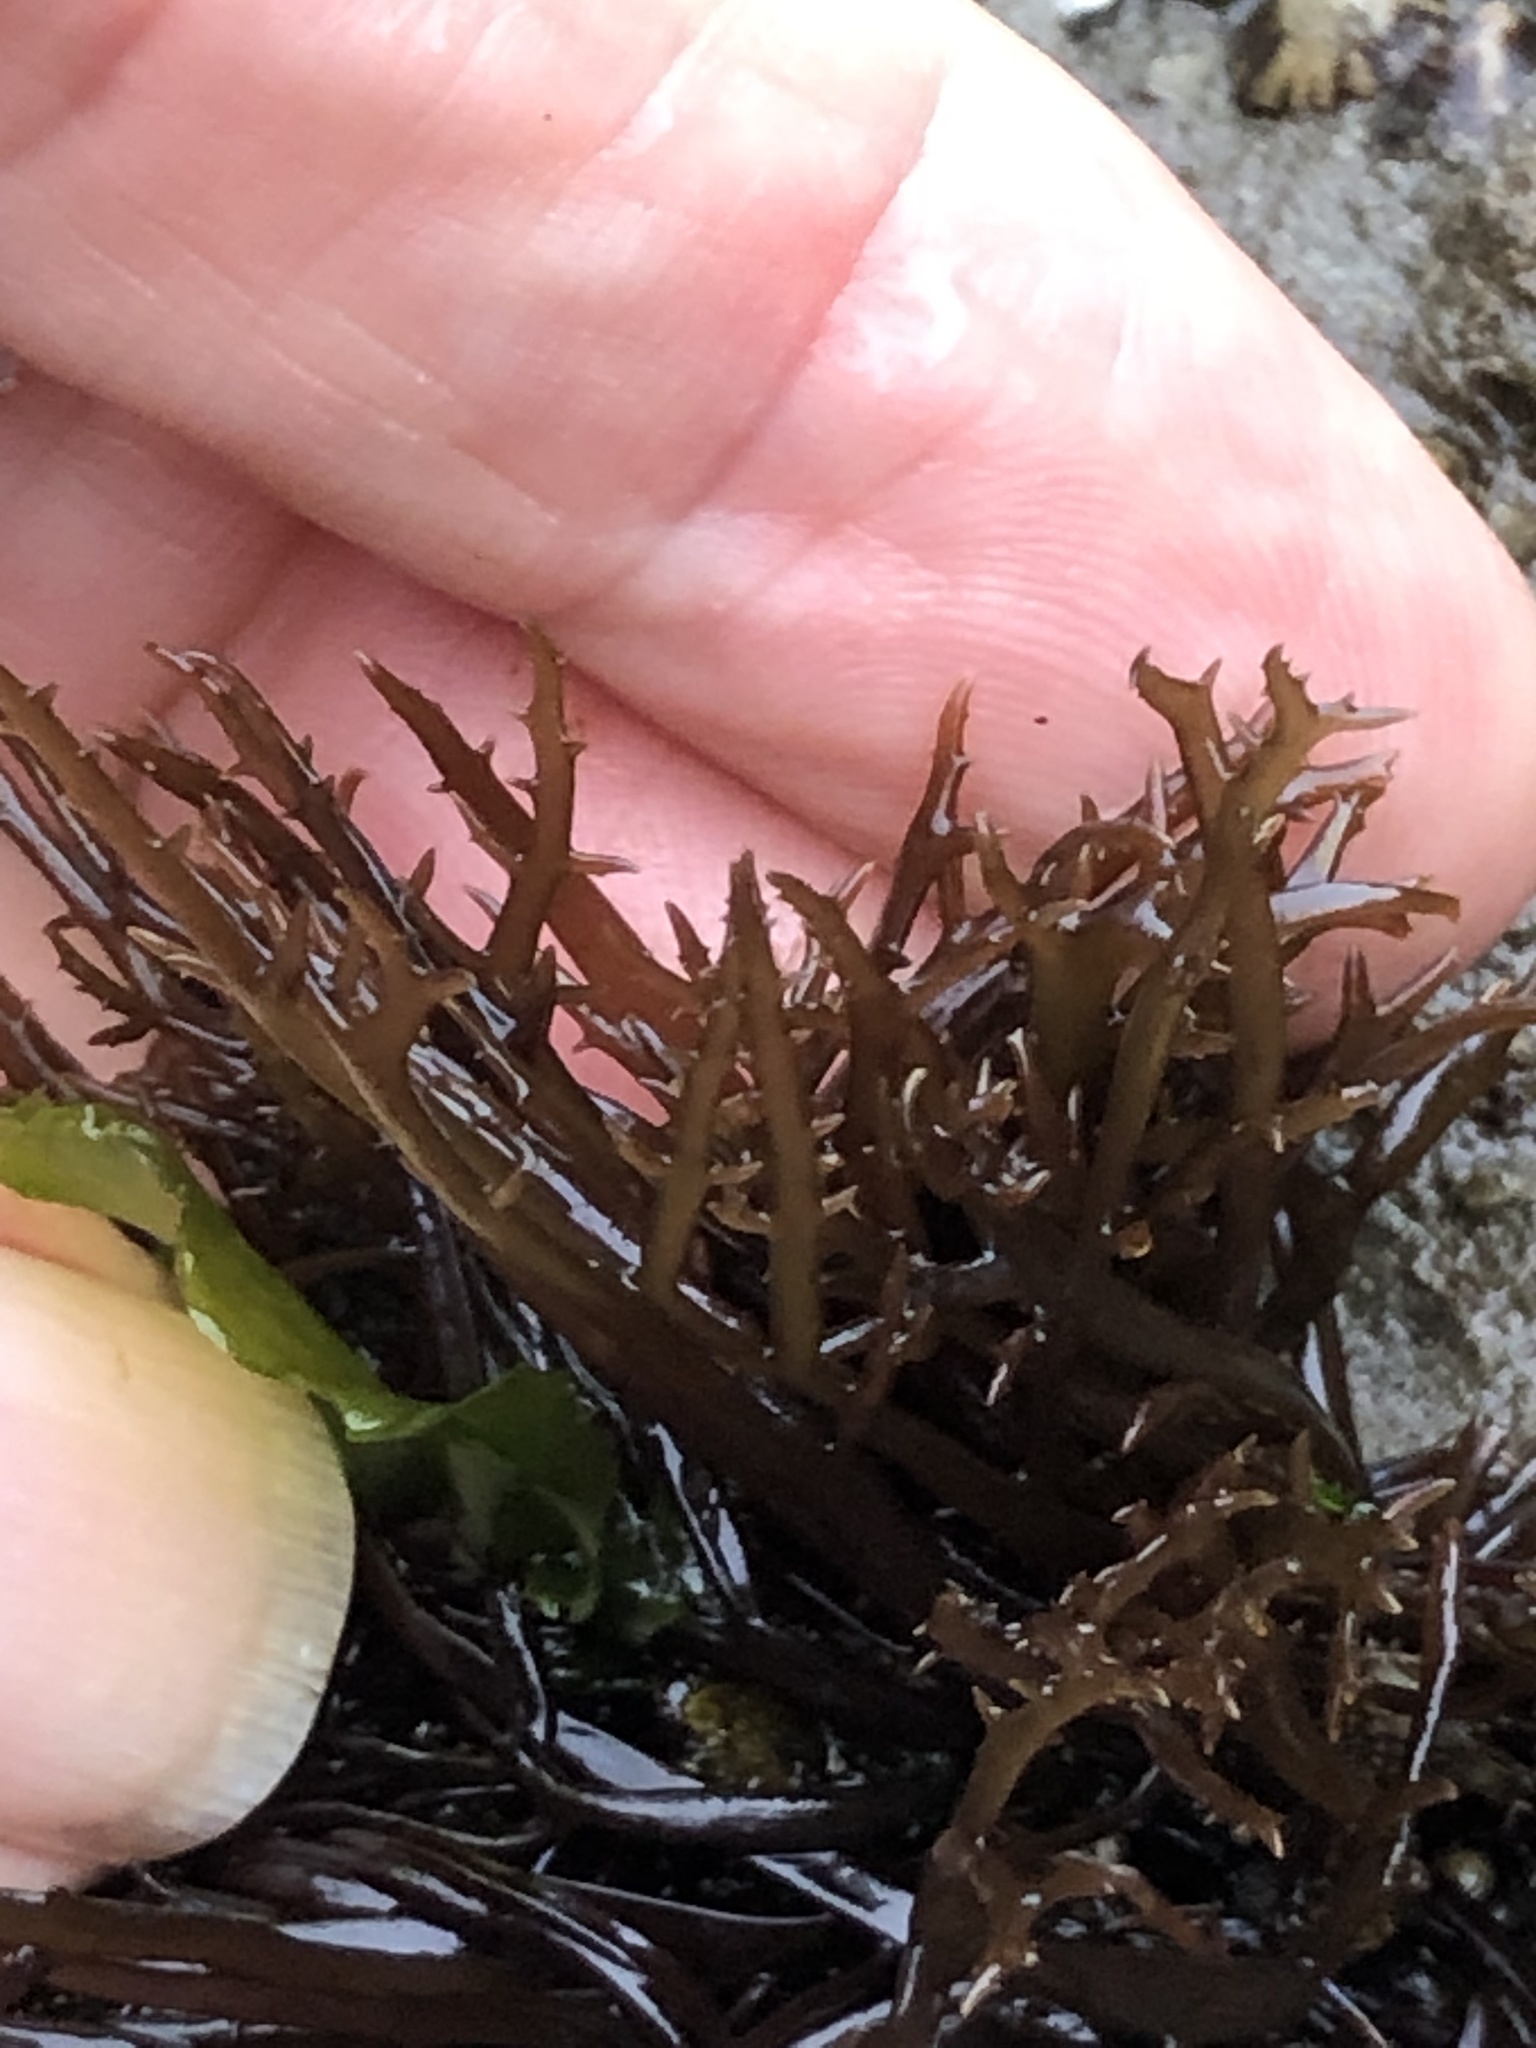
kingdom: Plantae
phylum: Rhodophyta
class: Florideophyceae
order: Gigartinales
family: Gigartinaceae
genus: Chondracanthus
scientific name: Chondracanthus canaliculatus
